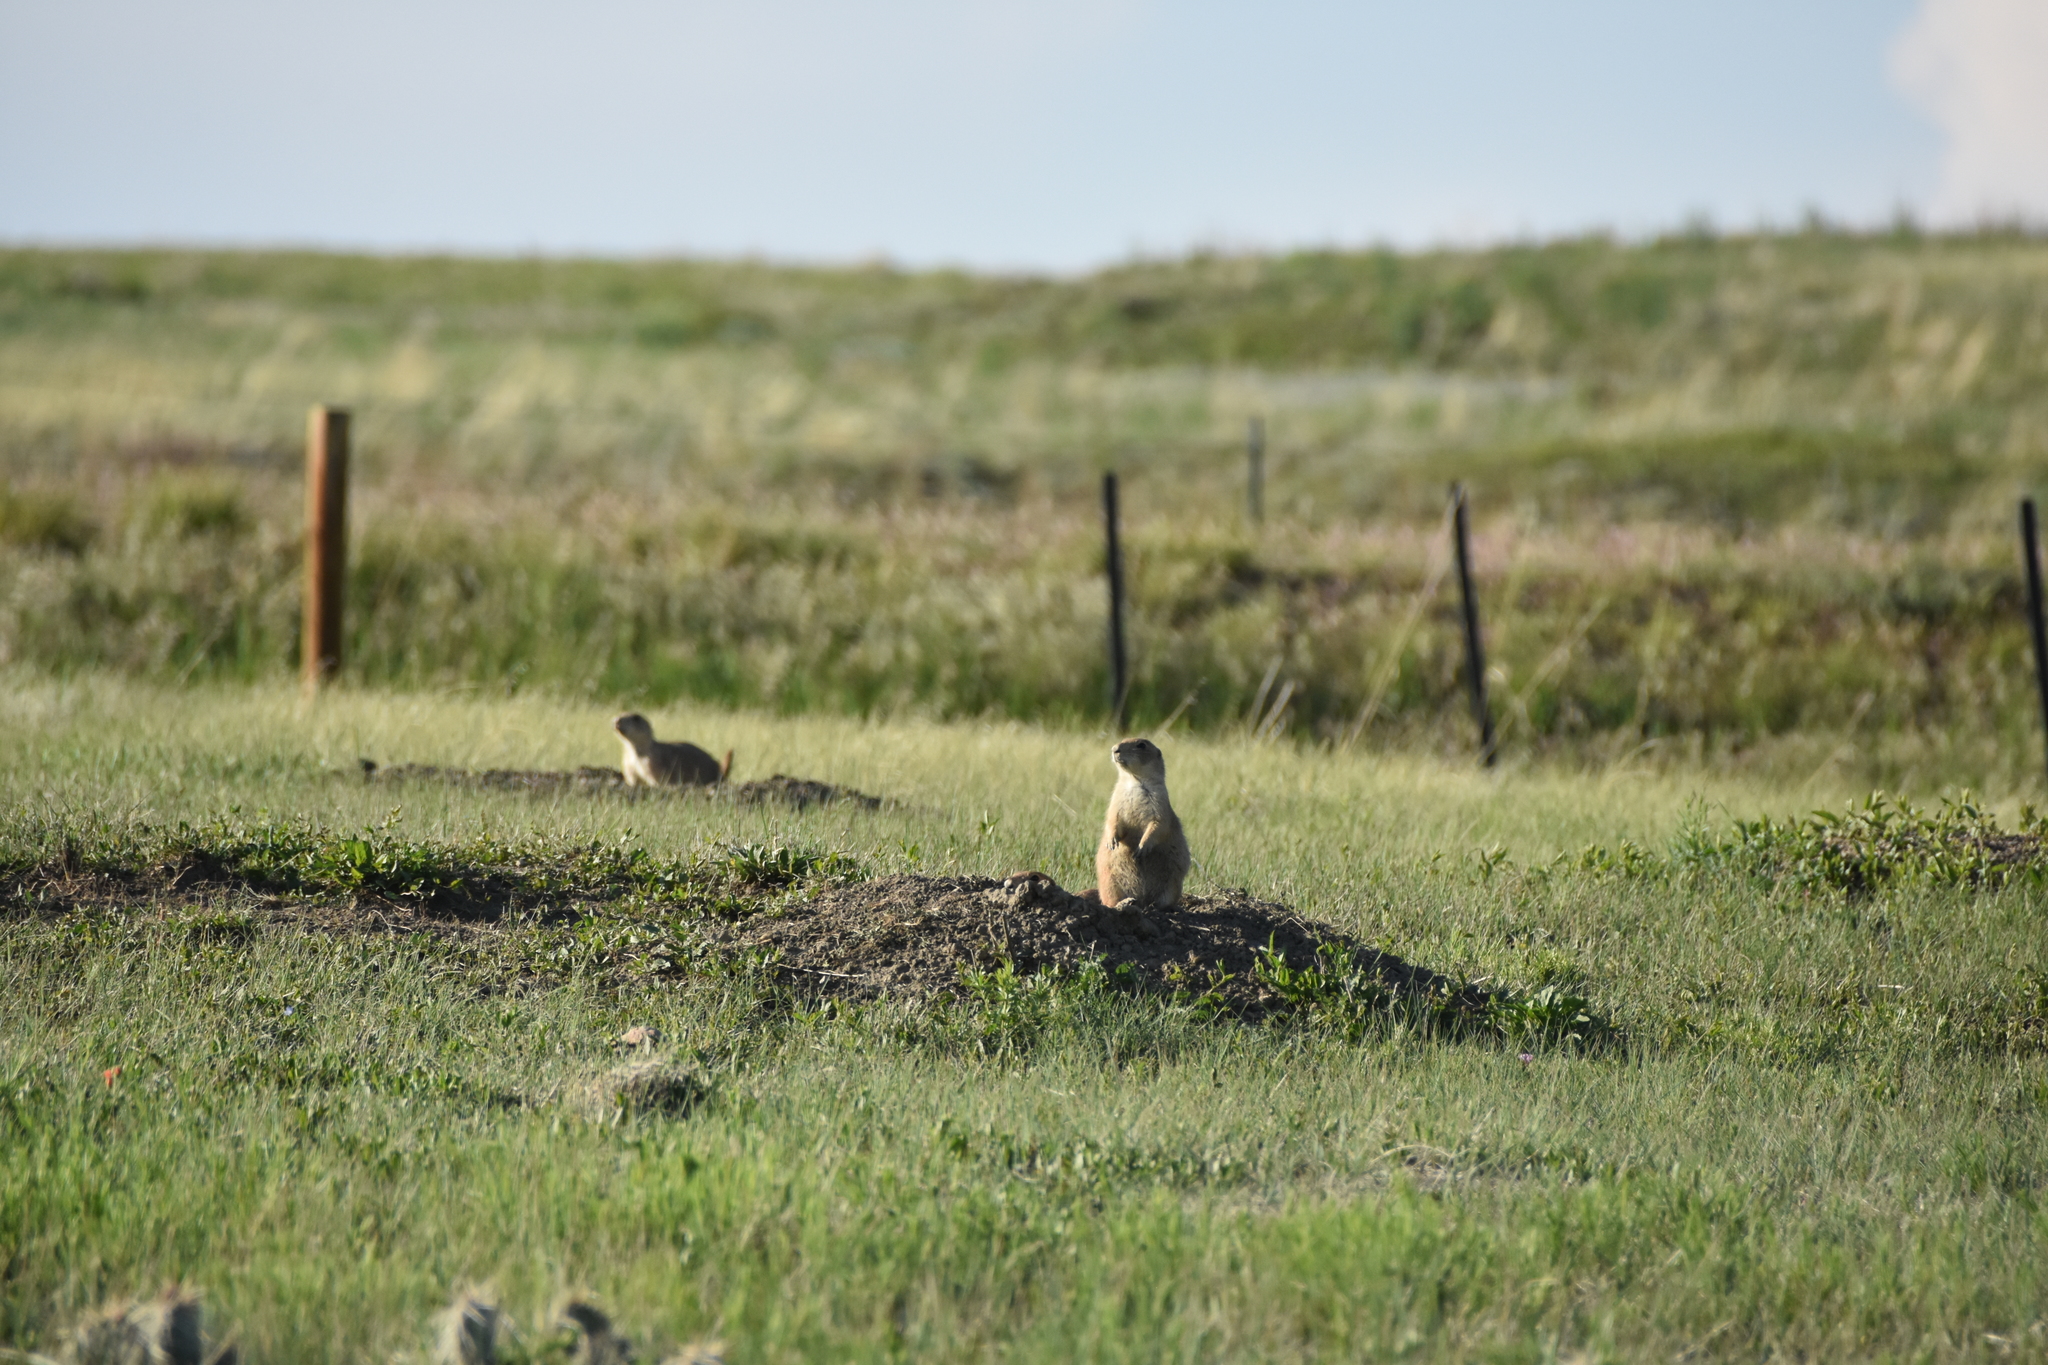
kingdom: Animalia
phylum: Chordata
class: Mammalia
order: Rodentia
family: Sciuridae
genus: Cynomys
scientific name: Cynomys ludovicianus
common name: Black-tailed prairie dog
